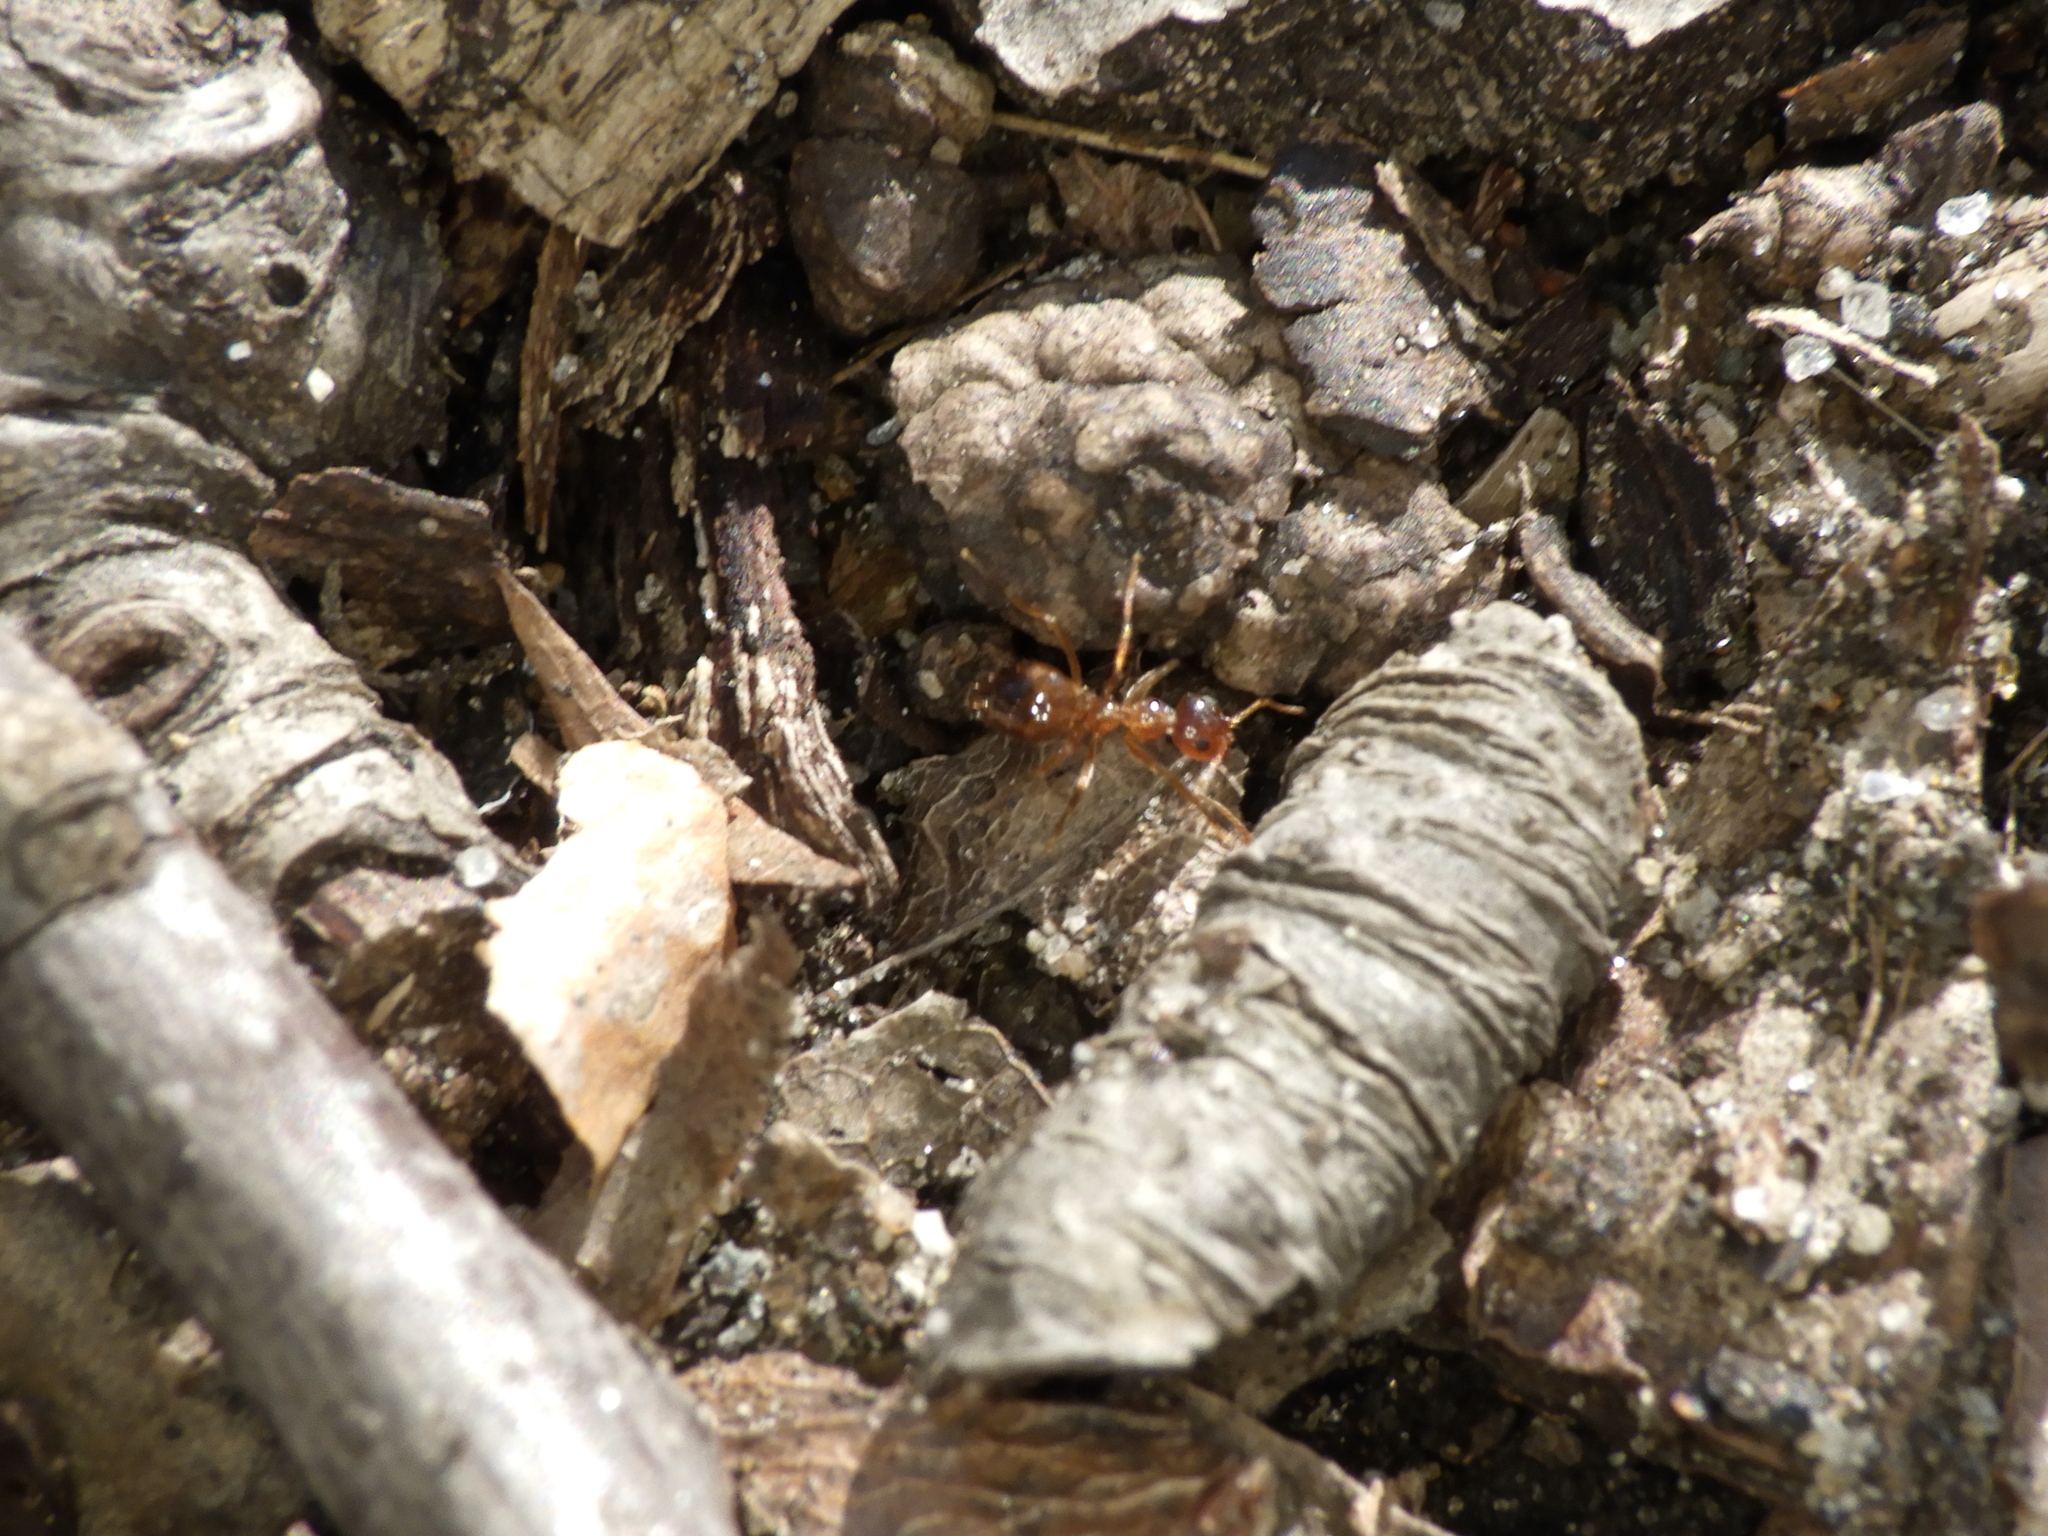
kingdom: Animalia
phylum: Arthropoda
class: Insecta
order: Hymenoptera
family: Formicidae
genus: Prenolepis
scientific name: Prenolepis imparis
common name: Small honey ant
